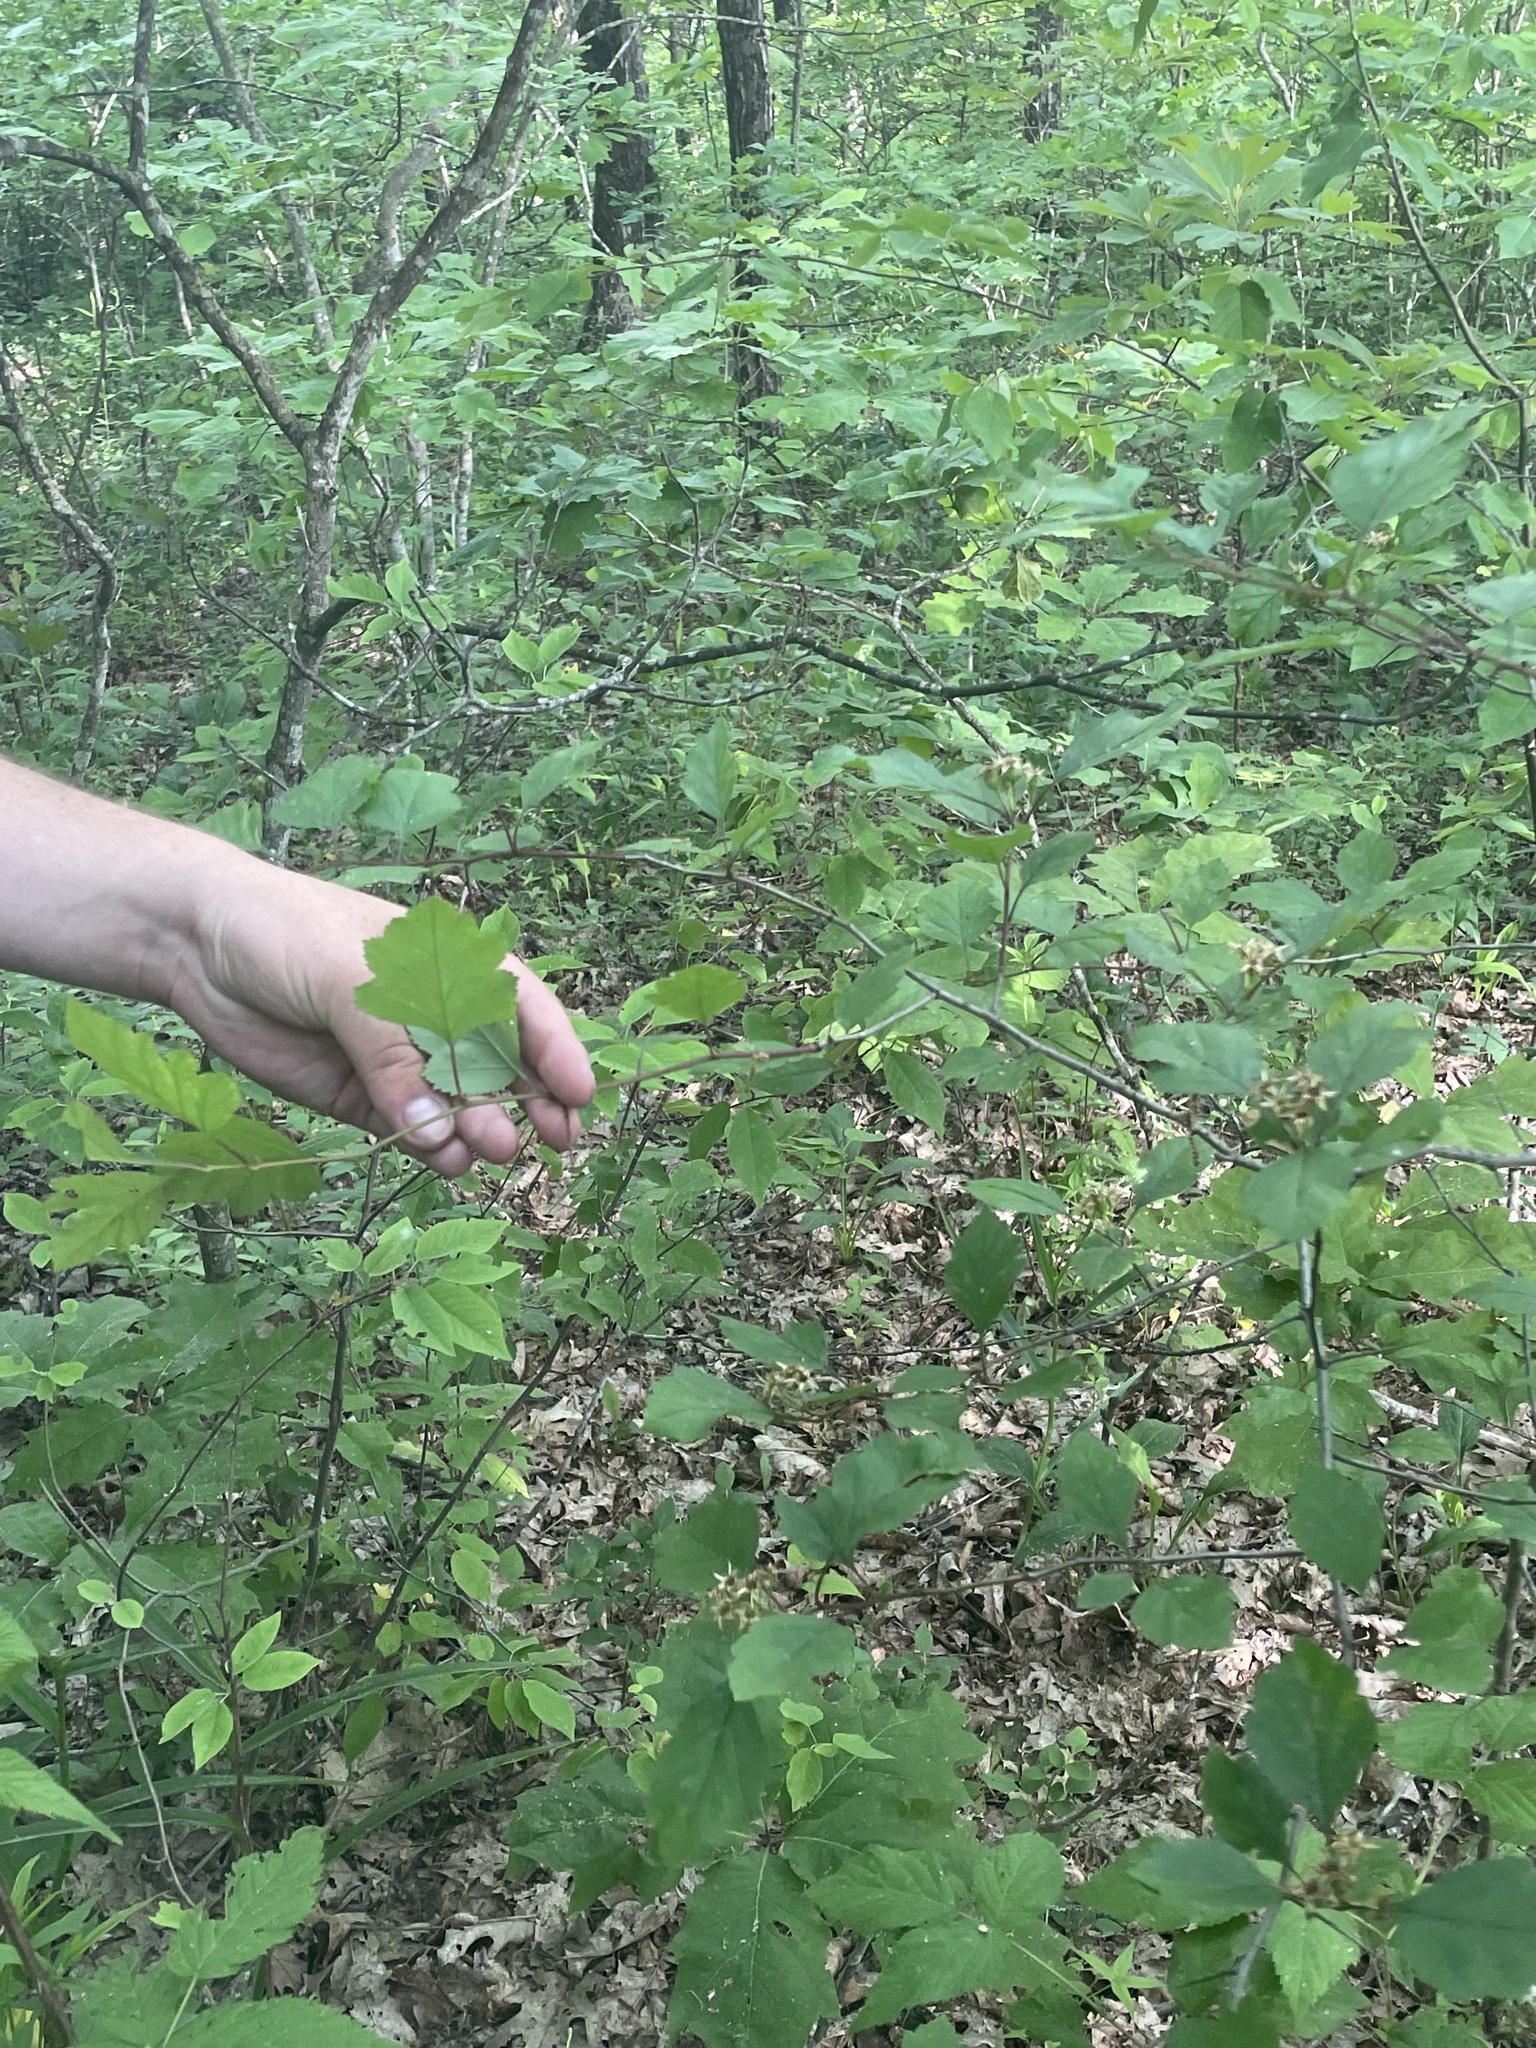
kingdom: Plantae
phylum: Tracheophyta
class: Magnoliopsida
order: Rosales
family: Rosaceae
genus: Crataegus
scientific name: Crataegus iracunda
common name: Stolon-bearing hawthorn
